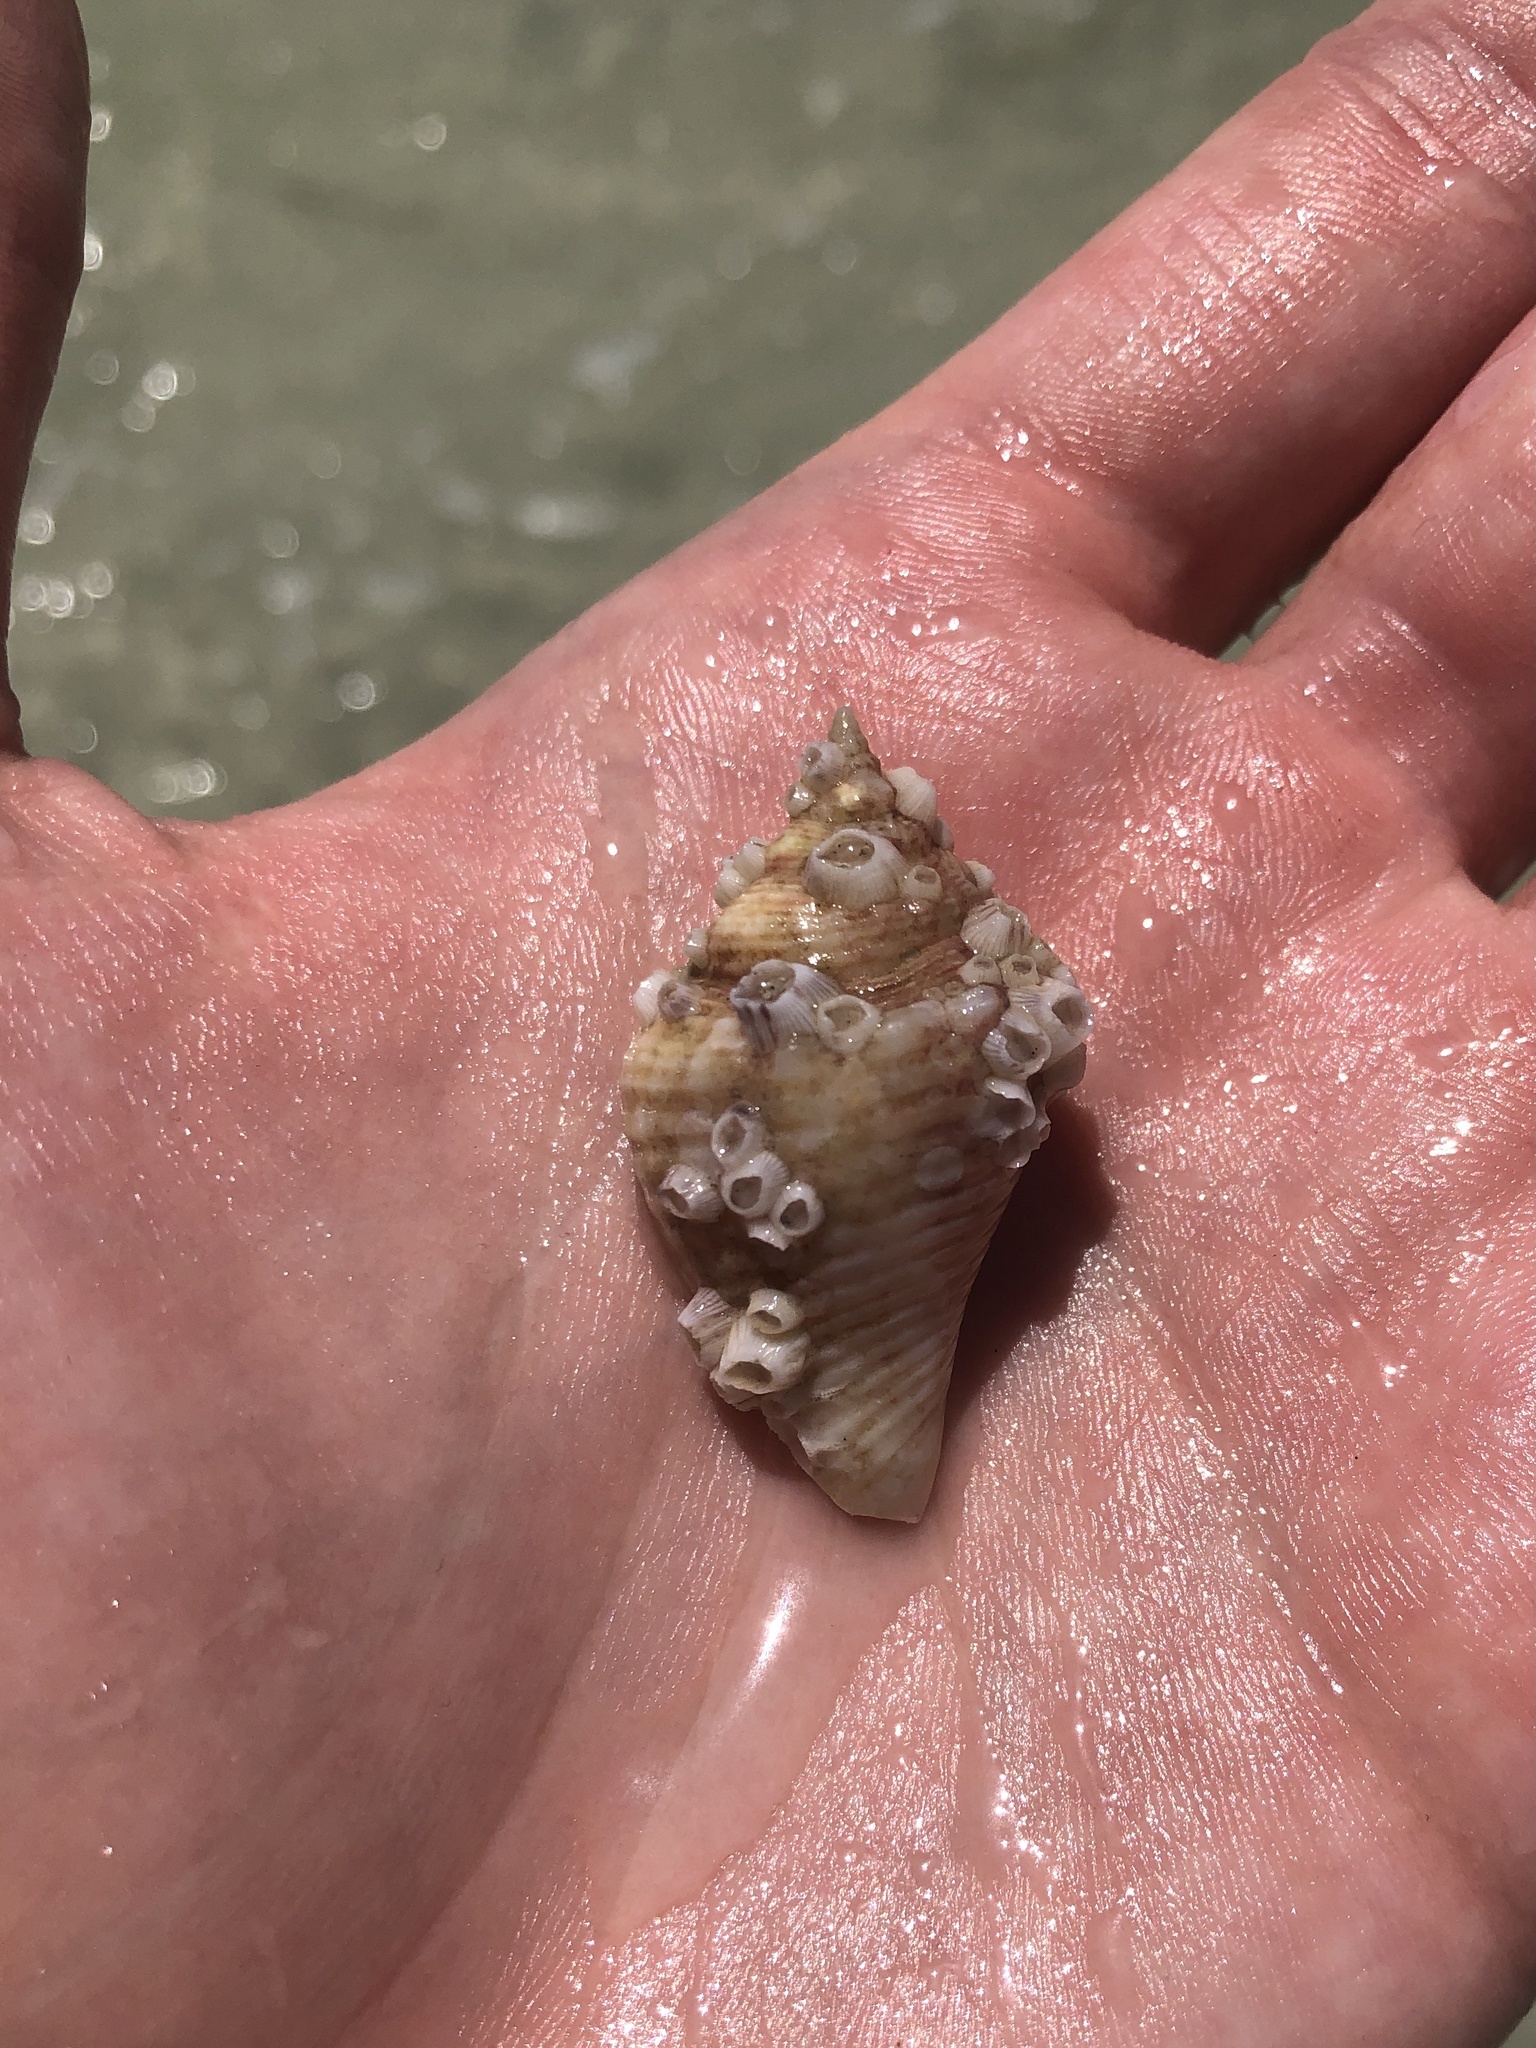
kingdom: Animalia
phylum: Mollusca
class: Gastropoda
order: Littorinimorpha
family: Strombidae
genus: Strombus
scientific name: Strombus alatus
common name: Florida fighting conch
